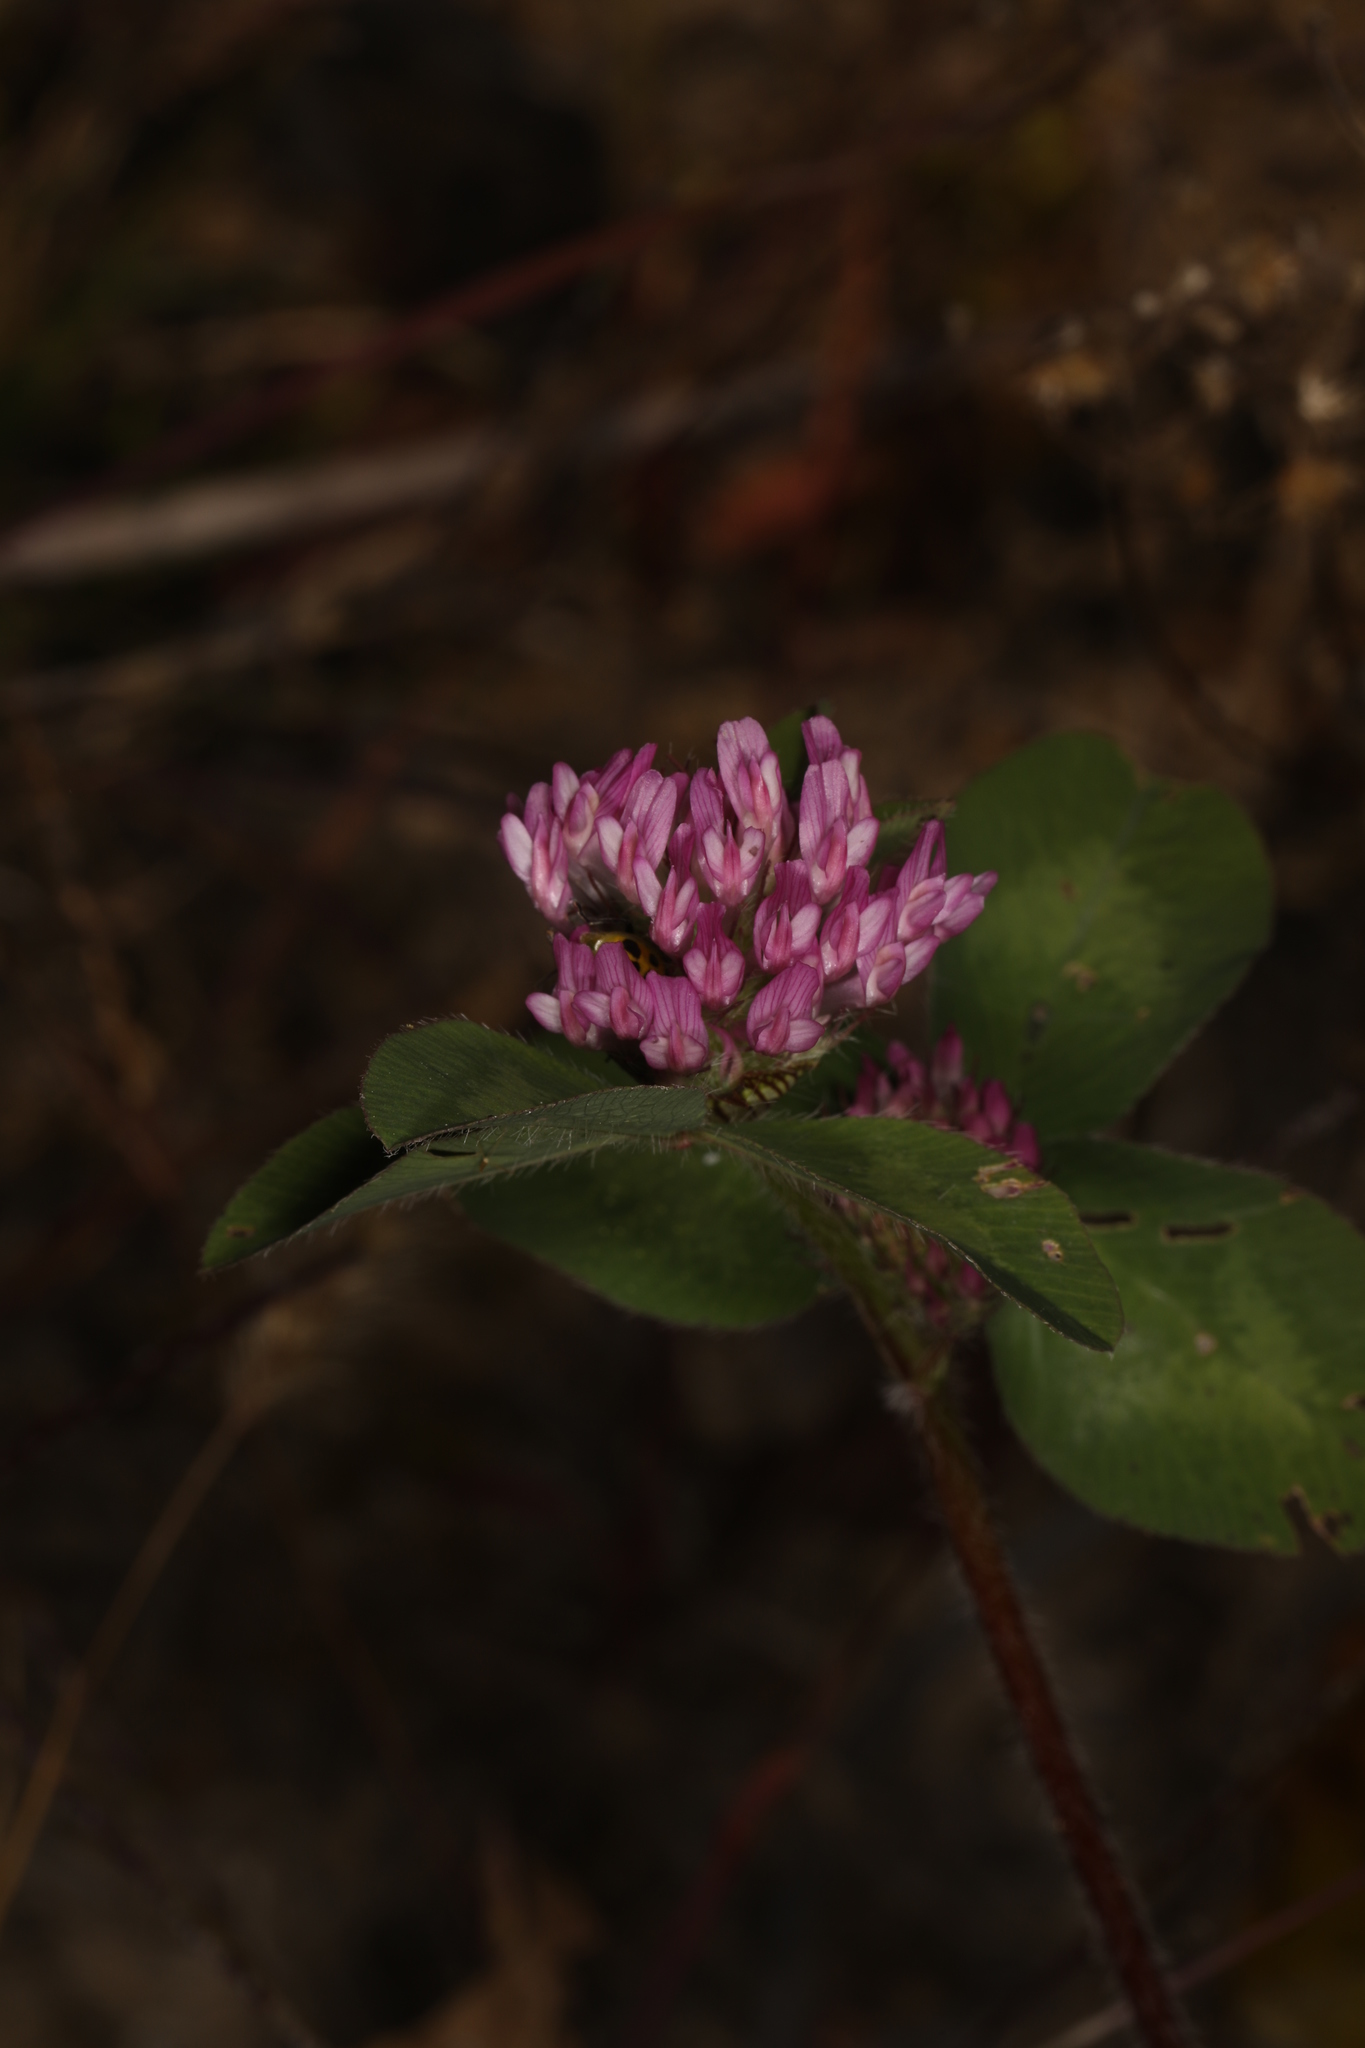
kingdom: Plantae
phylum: Tracheophyta
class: Magnoliopsida
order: Fabales
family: Fabaceae
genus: Trifolium
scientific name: Trifolium pratense
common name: Red clover
